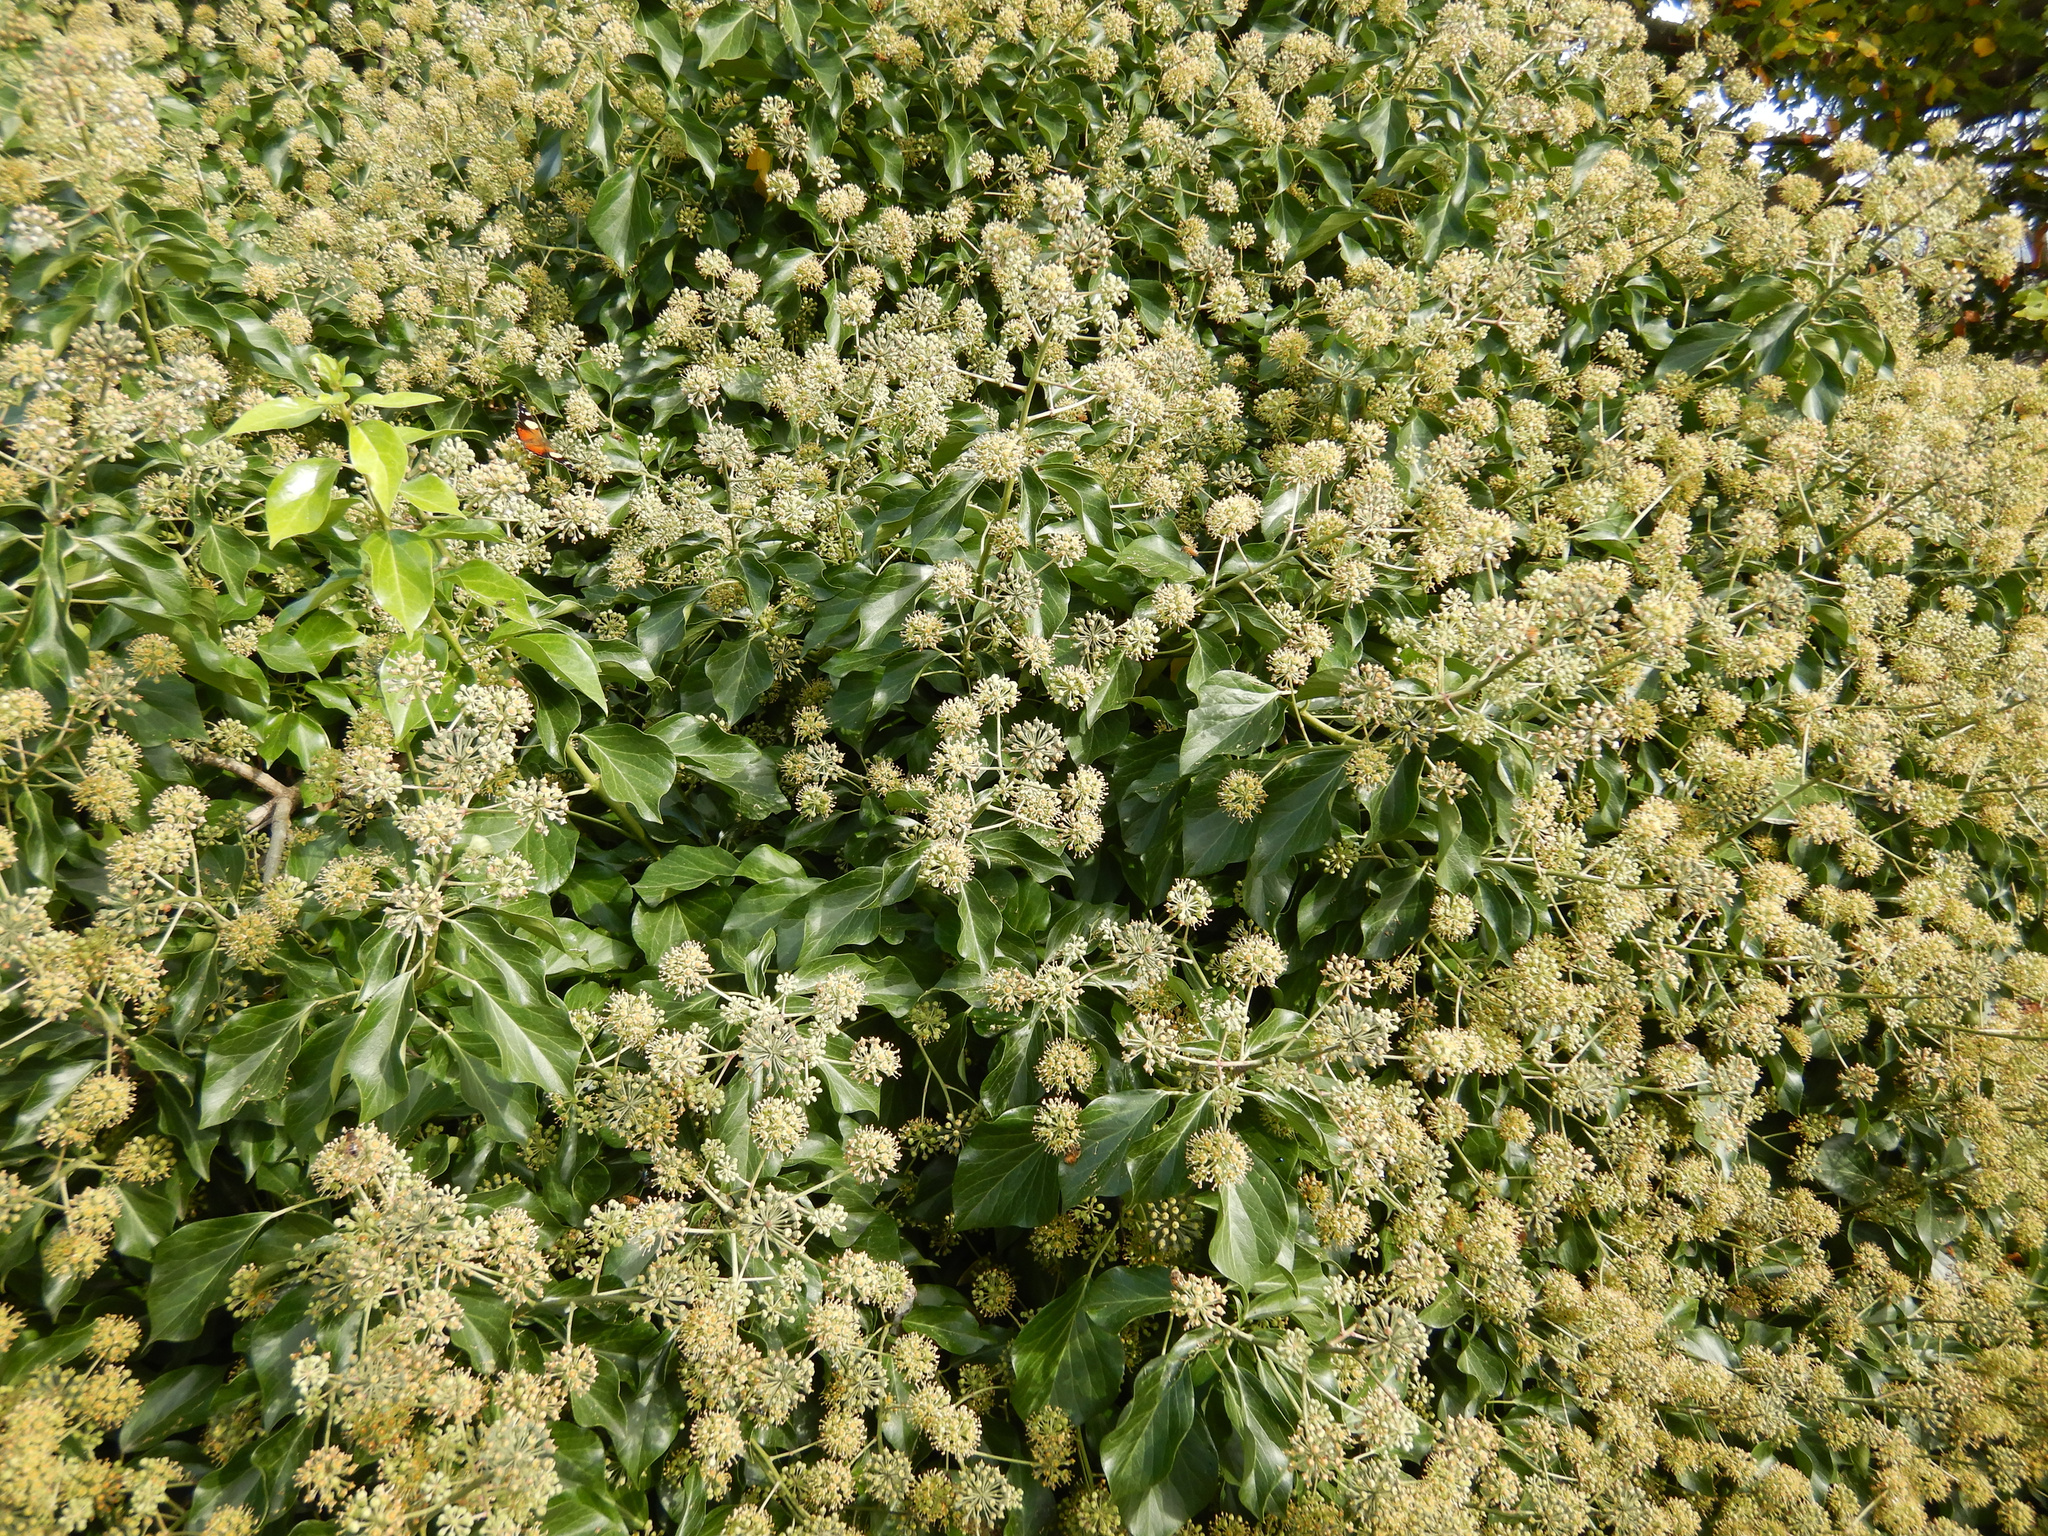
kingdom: Plantae
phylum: Tracheophyta
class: Magnoliopsida
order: Apiales
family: Araliaceae
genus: Hedera
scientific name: Hedera helix
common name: Ivy
